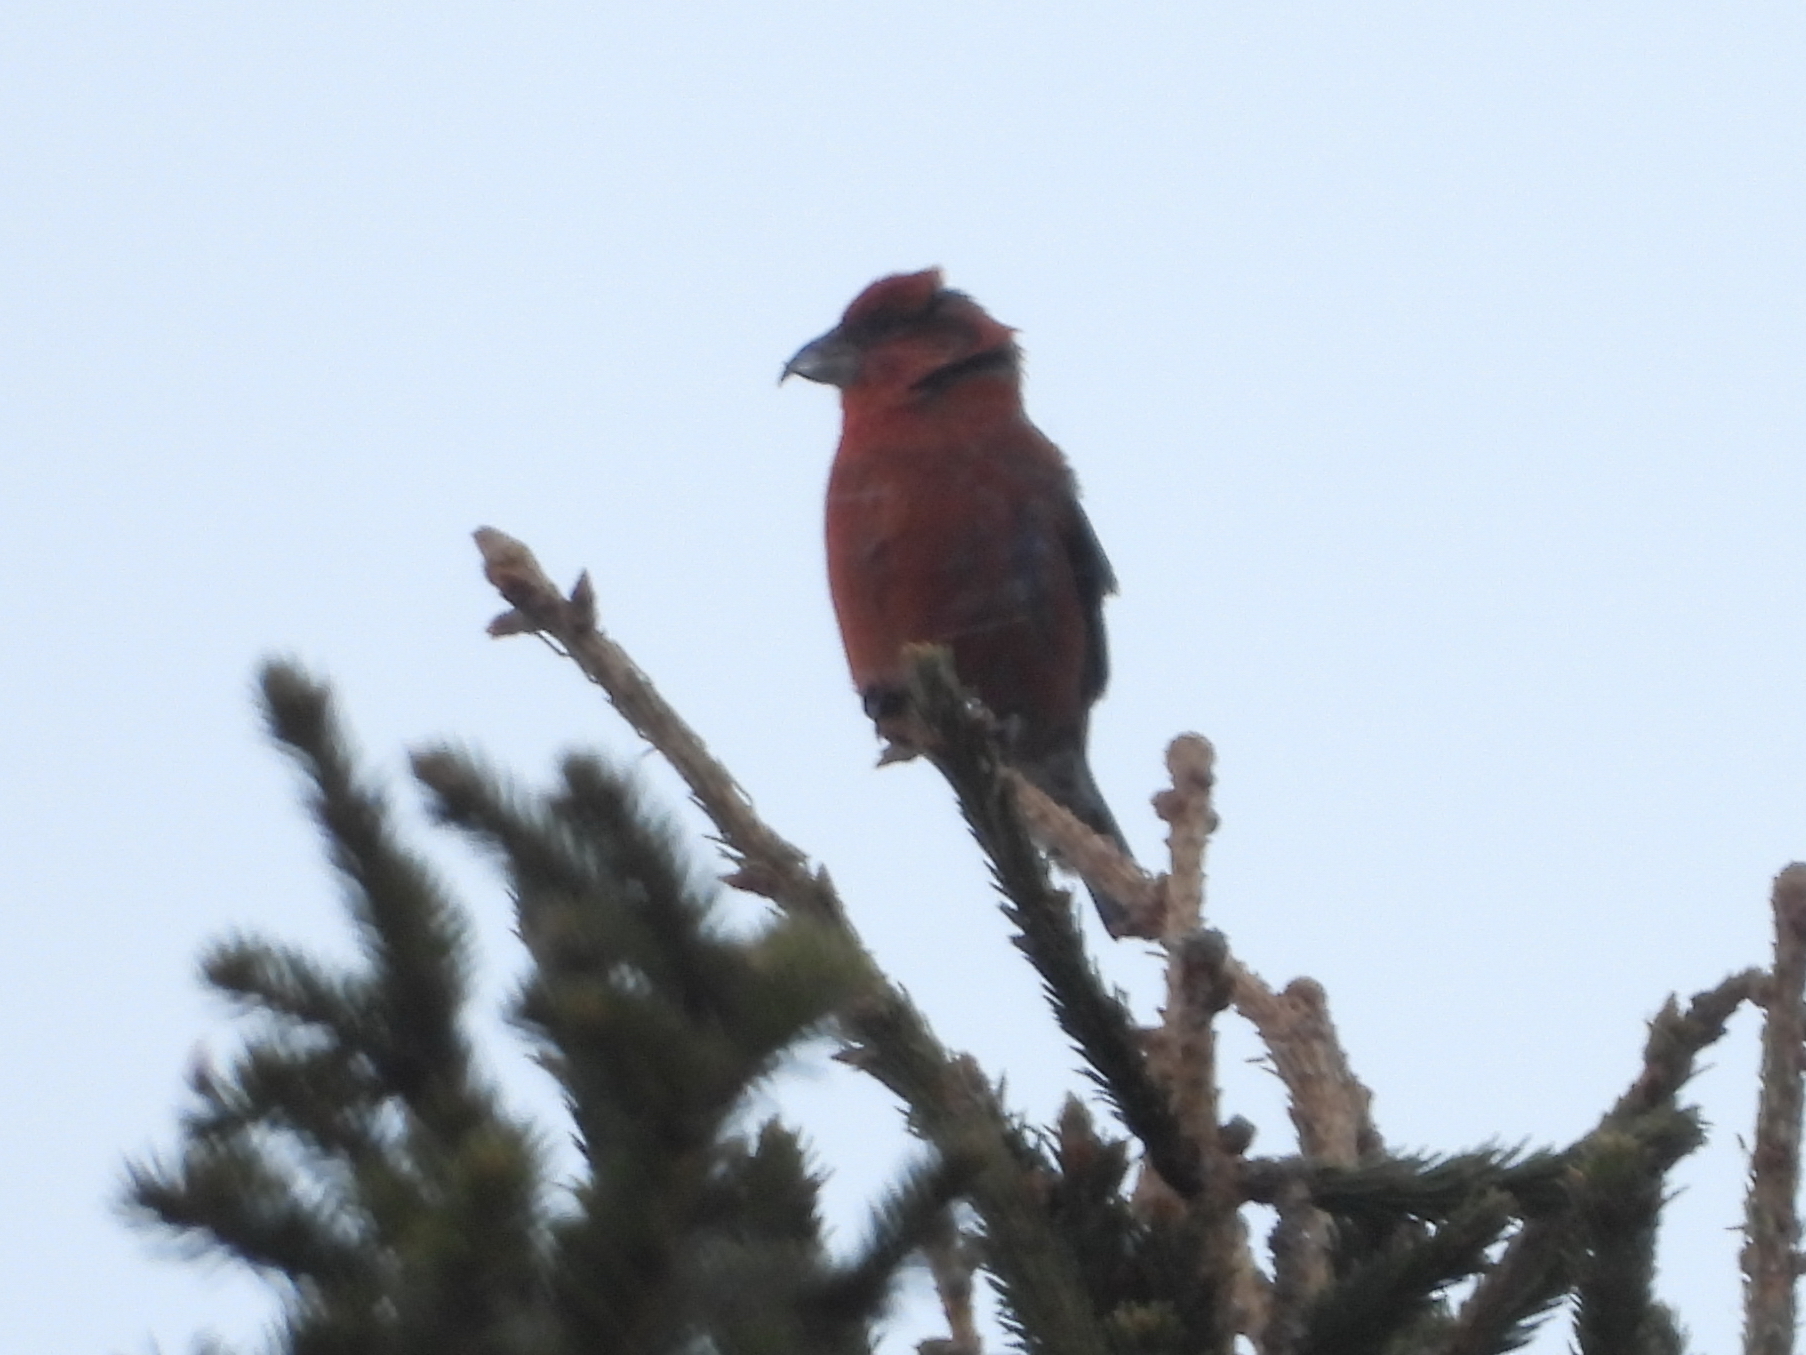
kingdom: Animalia
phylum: Chordata
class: Aves
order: Passeriformes
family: Fringillidae
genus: Loxia
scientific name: Loxia curvirostra
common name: Red crossbill
